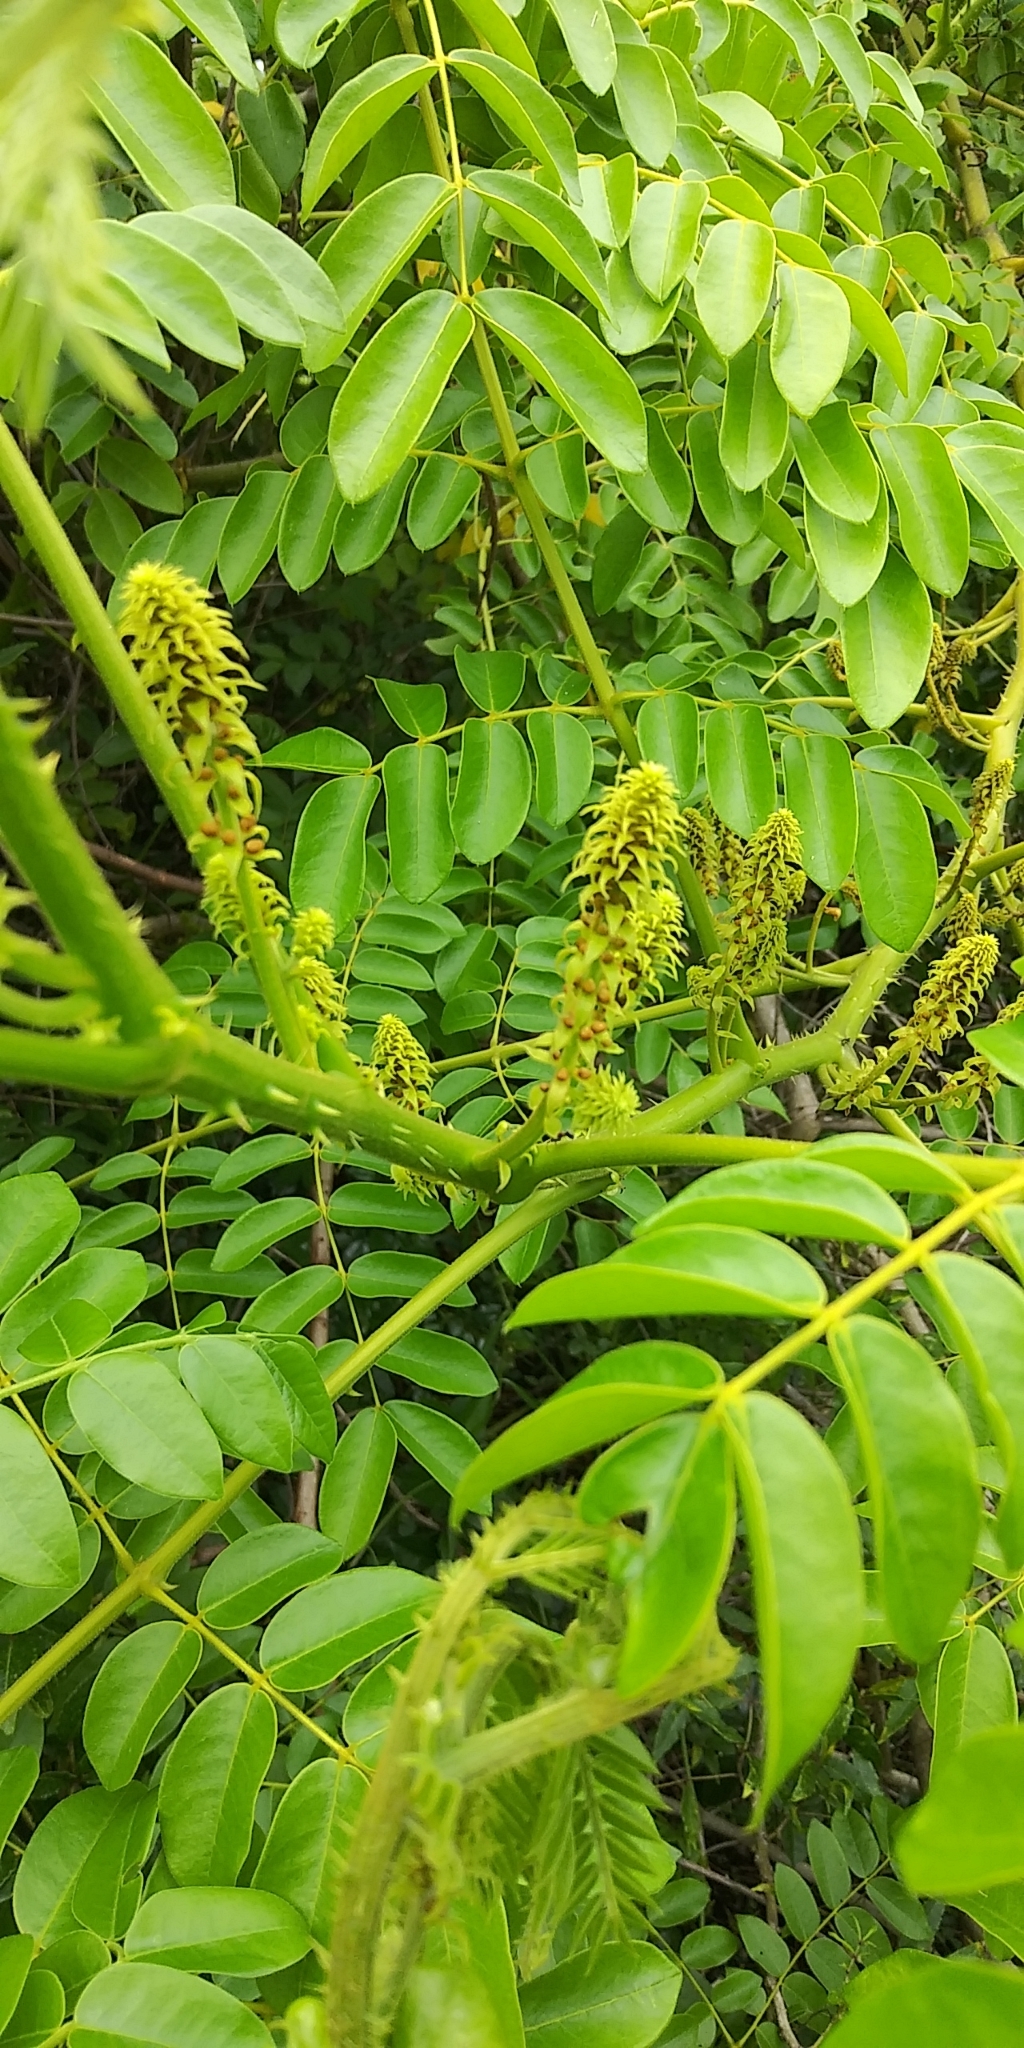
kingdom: Plantae
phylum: Tracheophyta
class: Magnoliopsida
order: Fabales
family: Fabaceae
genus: Guilandina
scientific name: Guilandina bonduc
